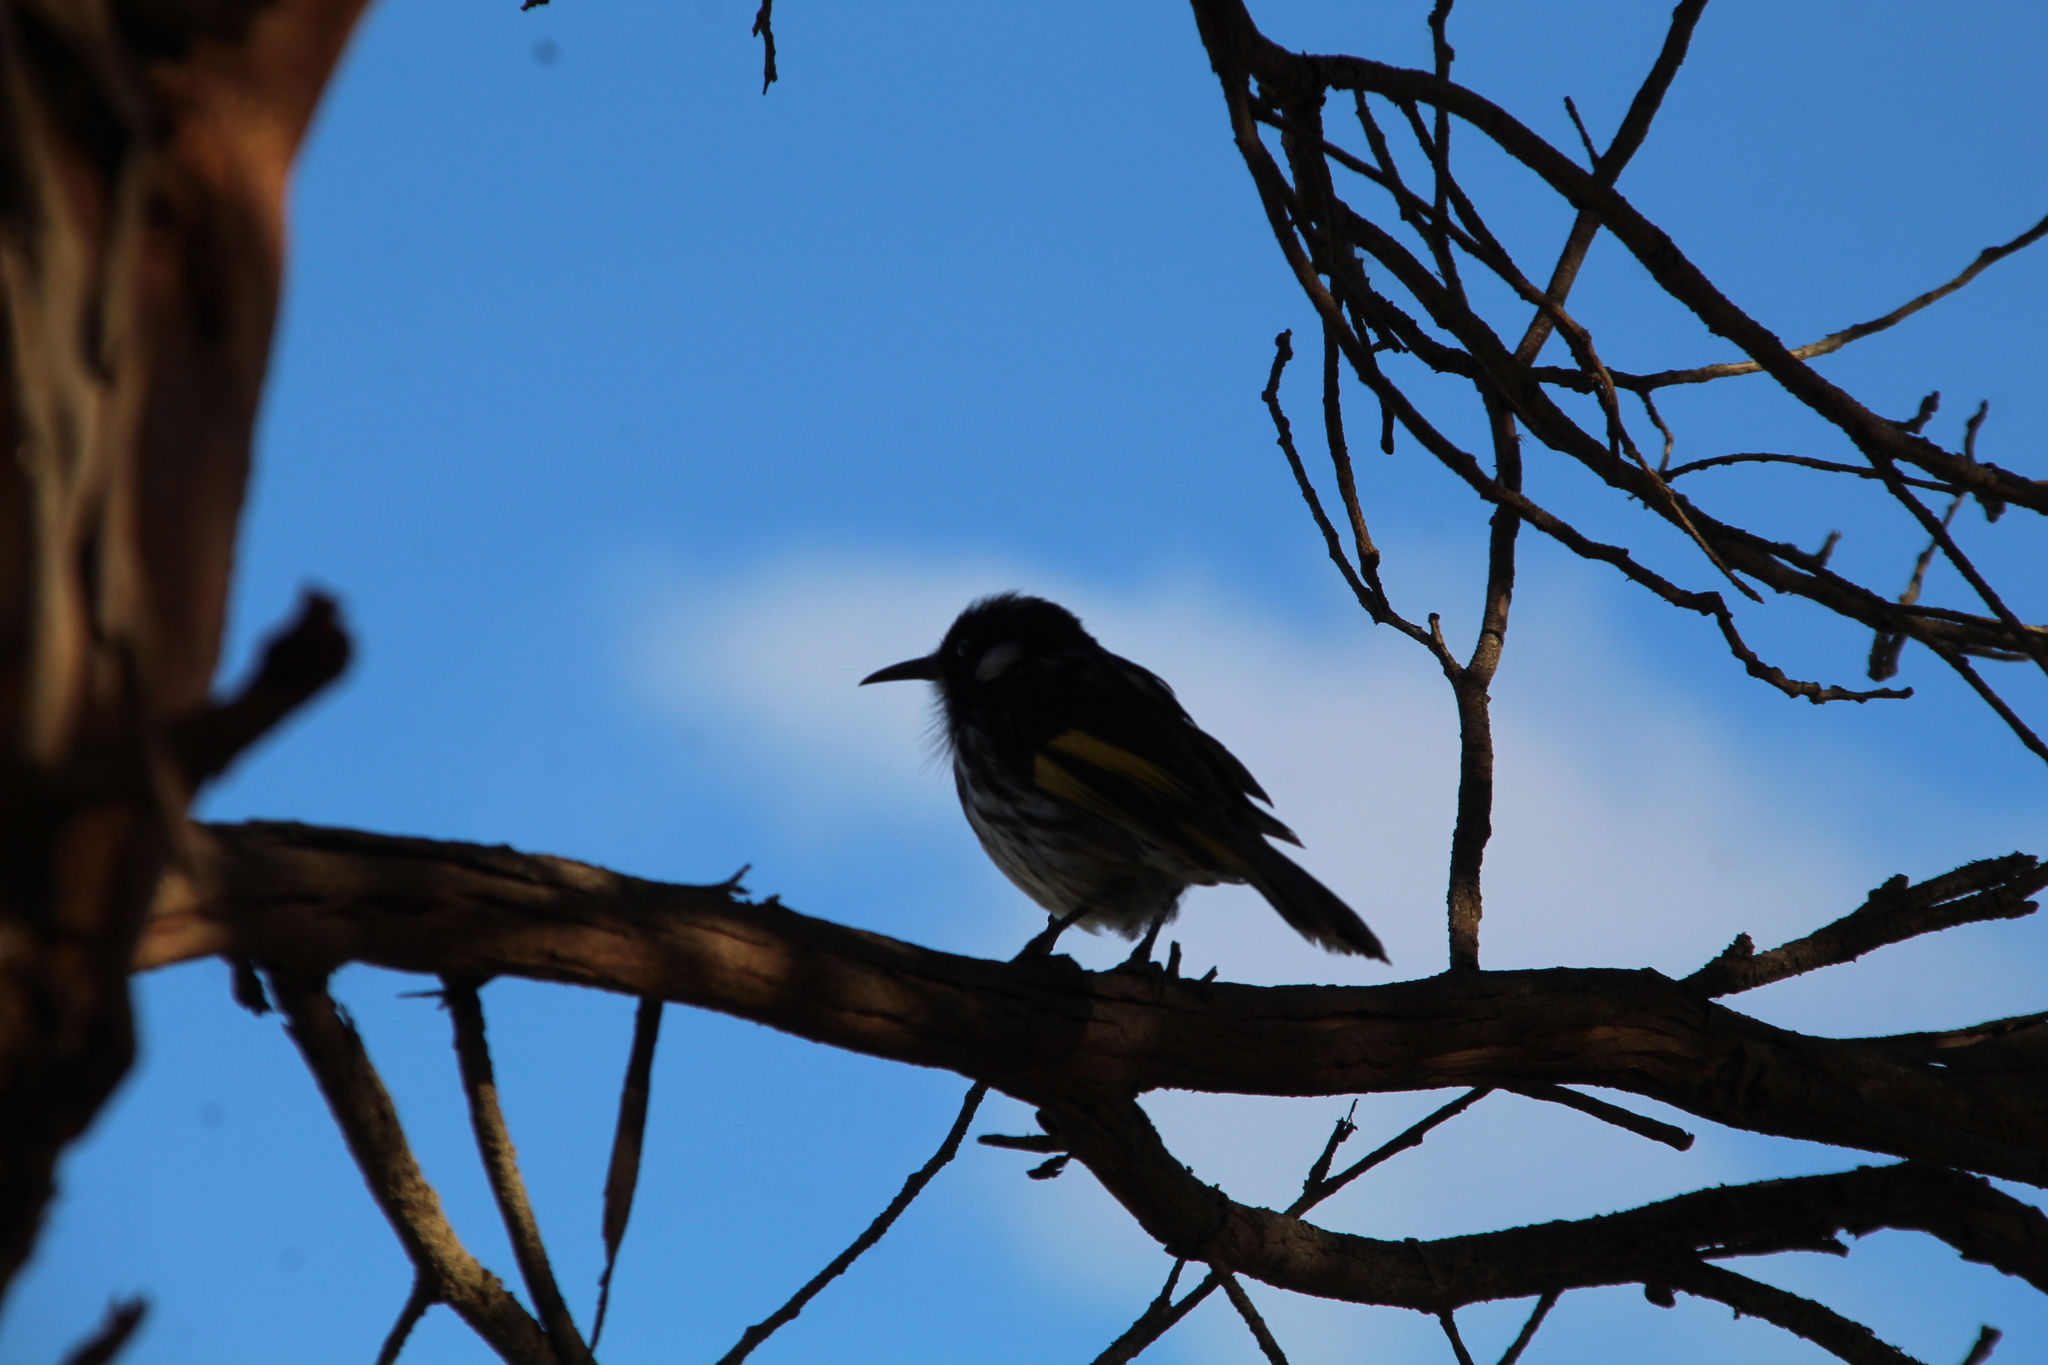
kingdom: Animalia
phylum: Chordata
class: Aves
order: Passeriformes
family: Meliphagidae
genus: Phylidonyris
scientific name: Phylidonyris novaehollandiae
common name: New holland honeyeater
